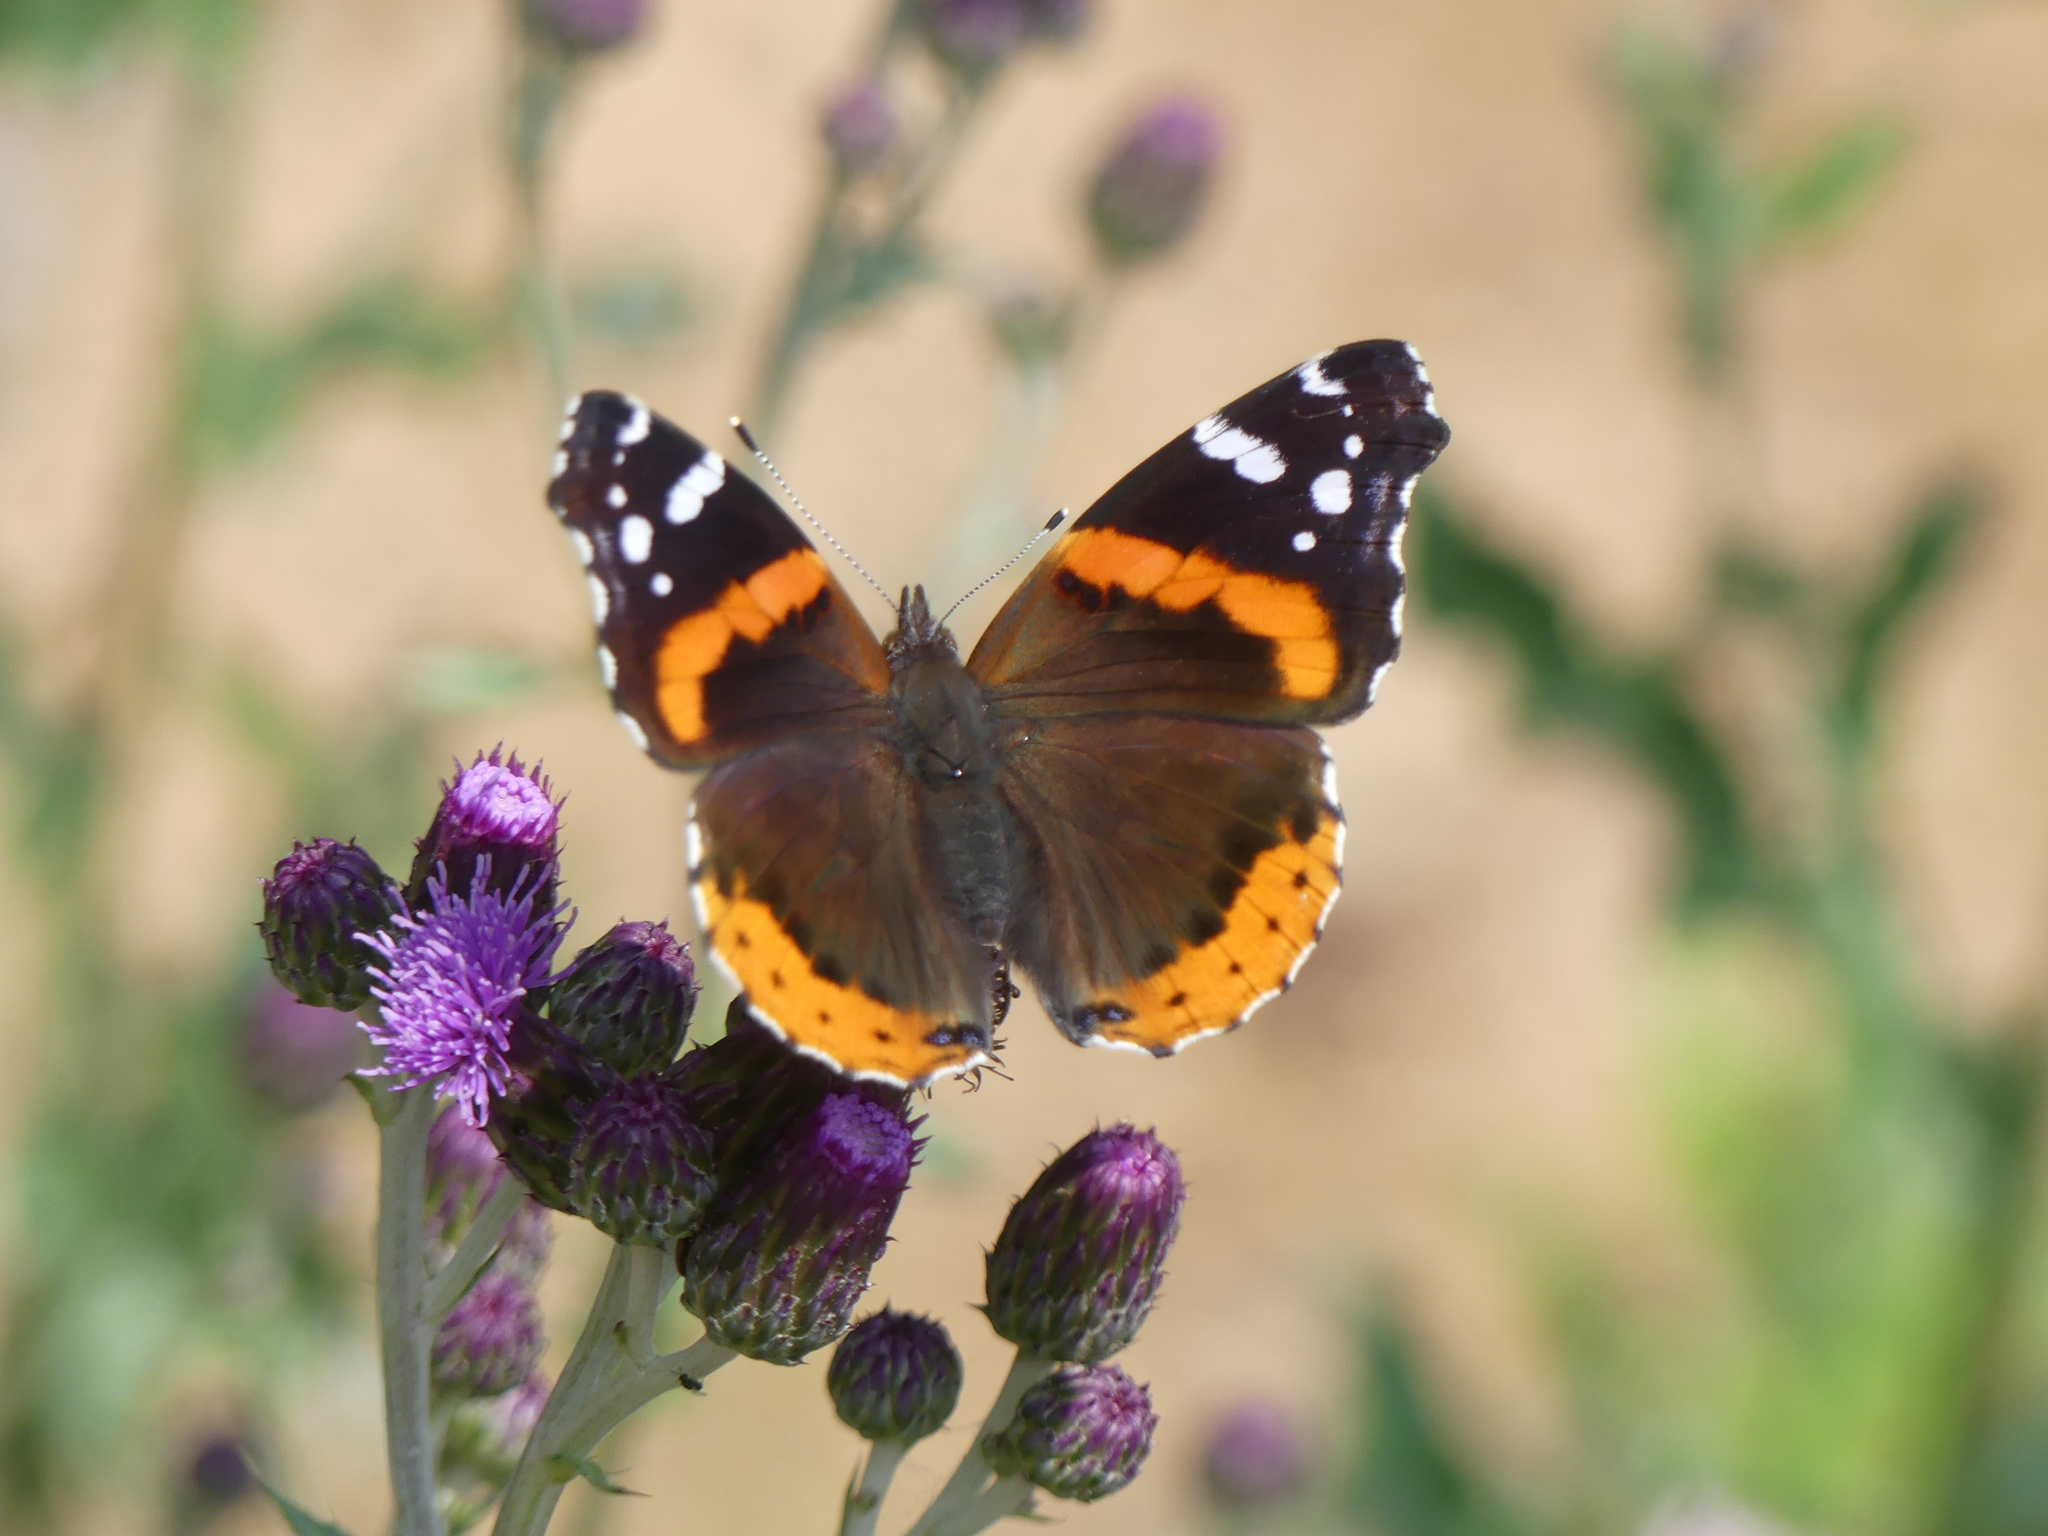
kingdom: Animalia
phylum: Arthropoda
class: Insecta
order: Lepidoptera
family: Nymphalidae
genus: Vanessa
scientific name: Vanessa atalanta
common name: Red admiral
